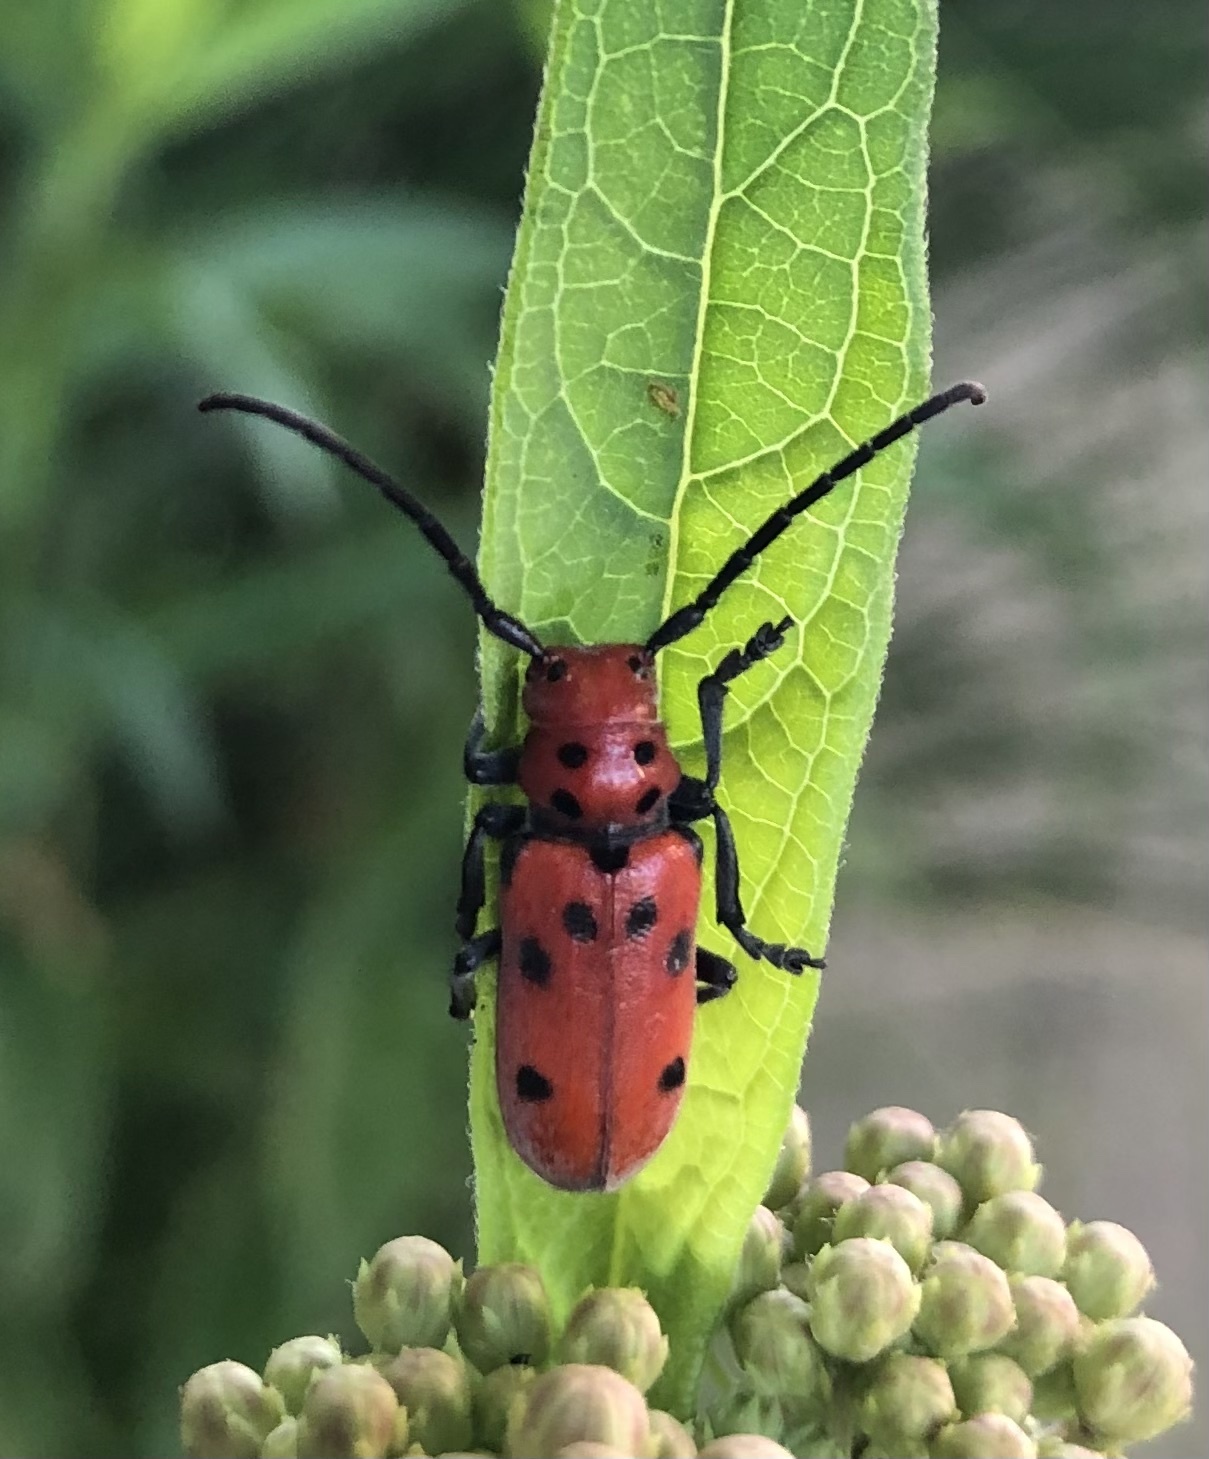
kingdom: Animalia
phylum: Arthropoda
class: Insecta
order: Coleoptera
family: Cerambycidae
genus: Tetraopes
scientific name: Tetraopes tetrophthalmus
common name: Red milkweed beetle
